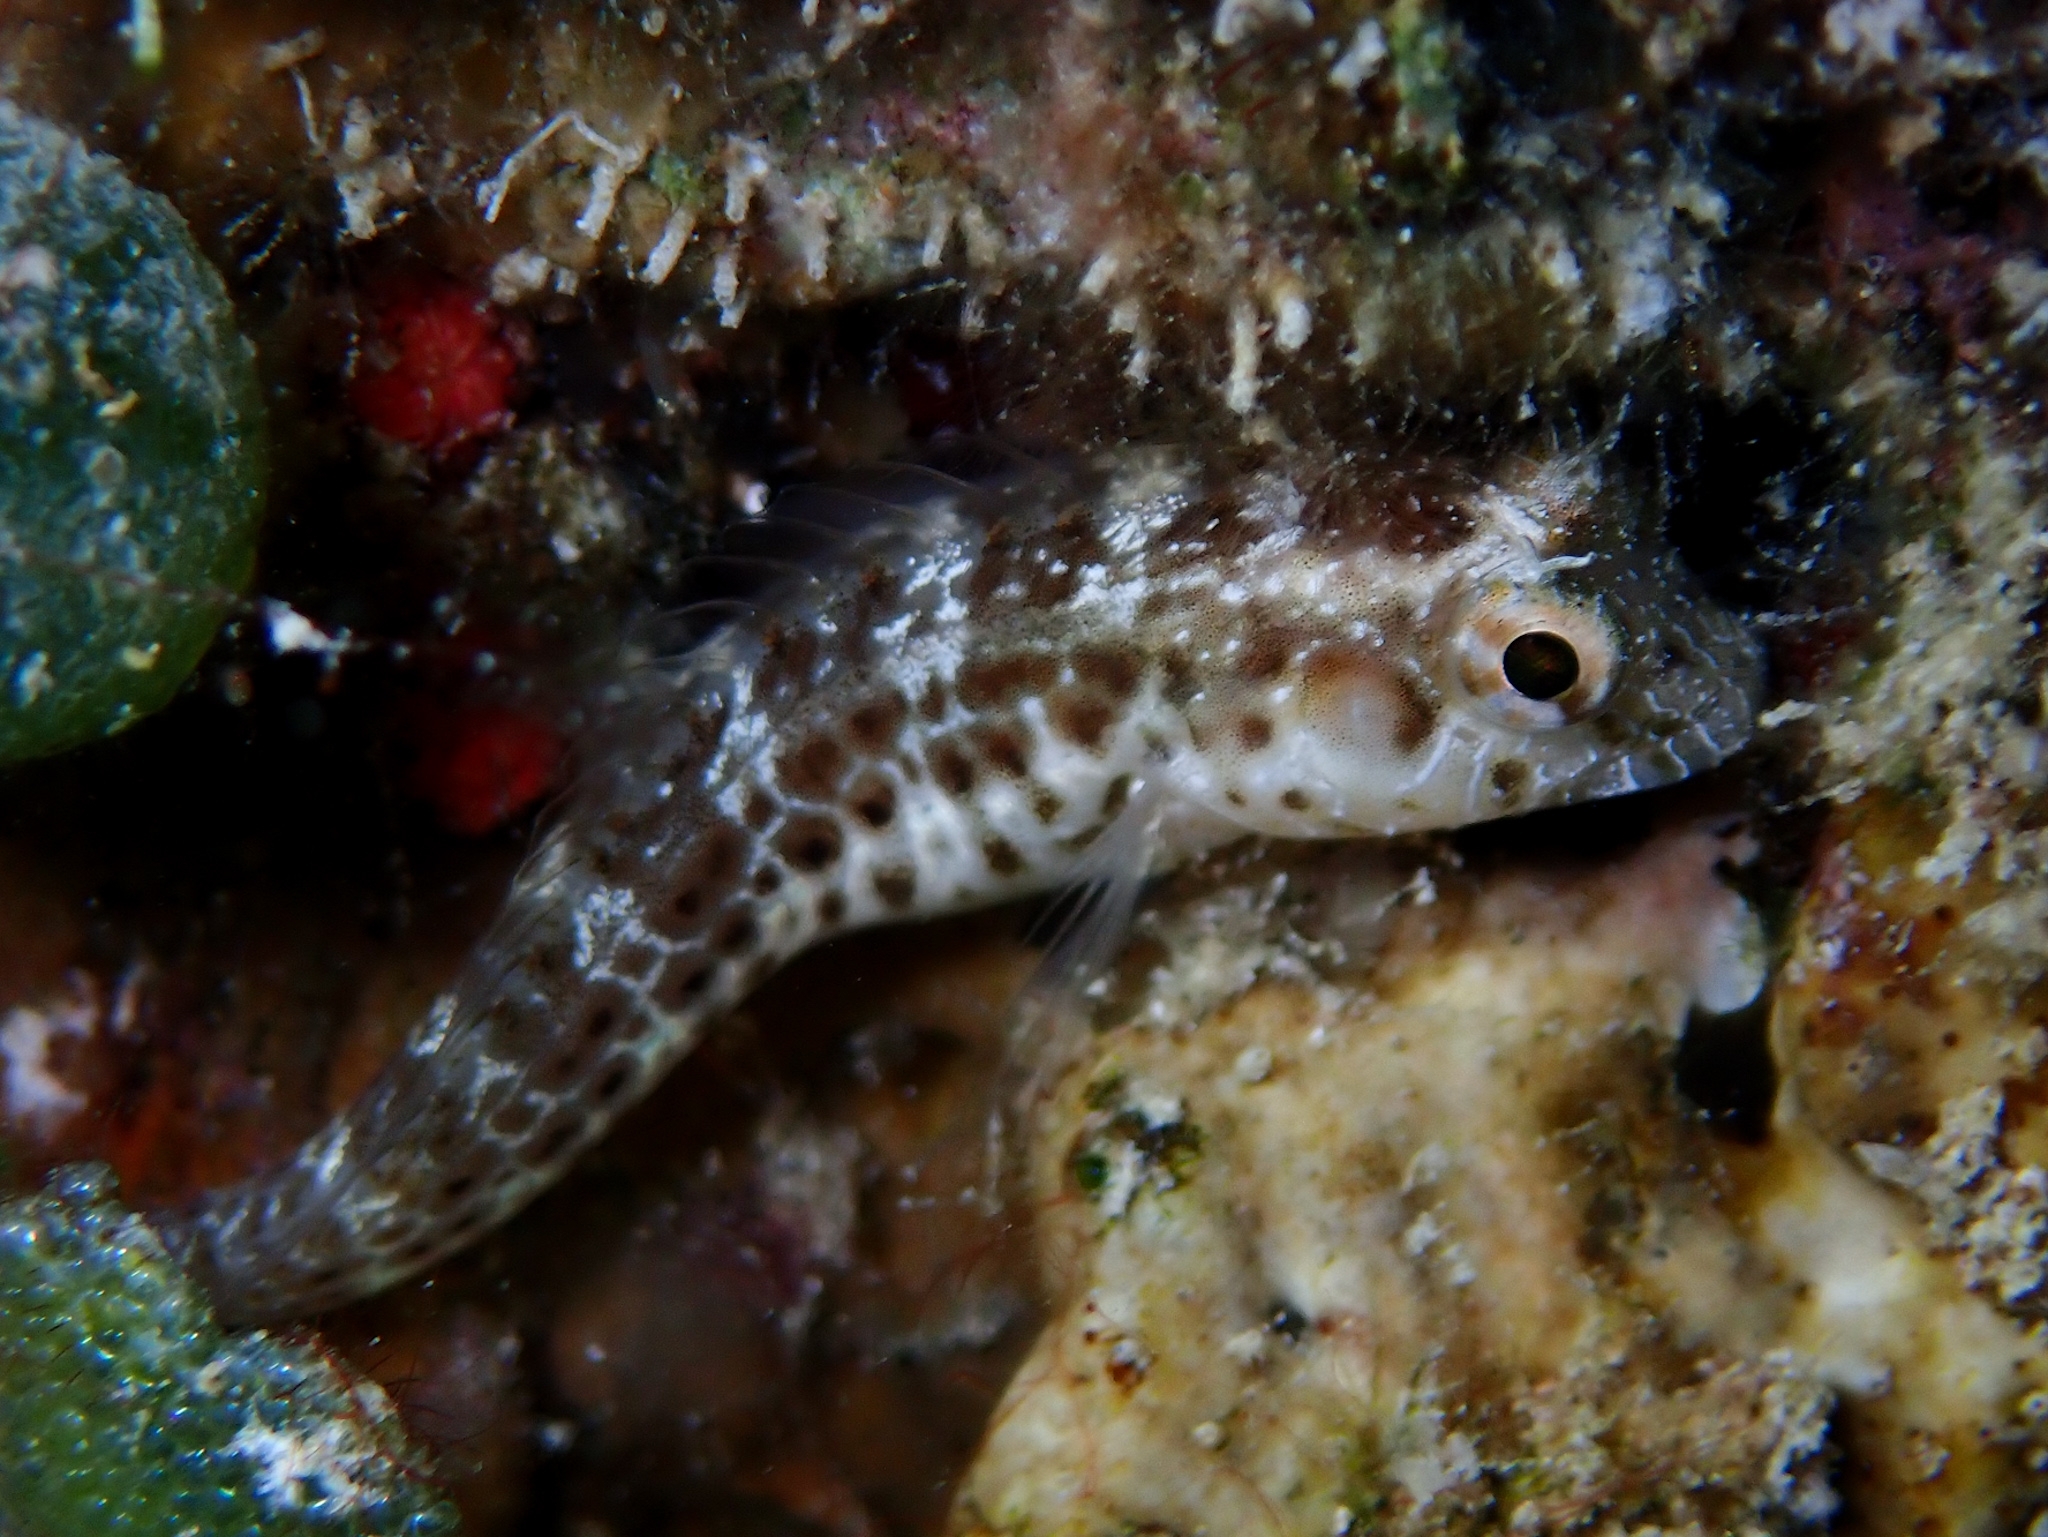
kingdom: Animalia
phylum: Chordata
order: Perciformes
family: Blenniidae
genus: Parablennius
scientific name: Parablennius marmoreus
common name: Seaweed blenny
